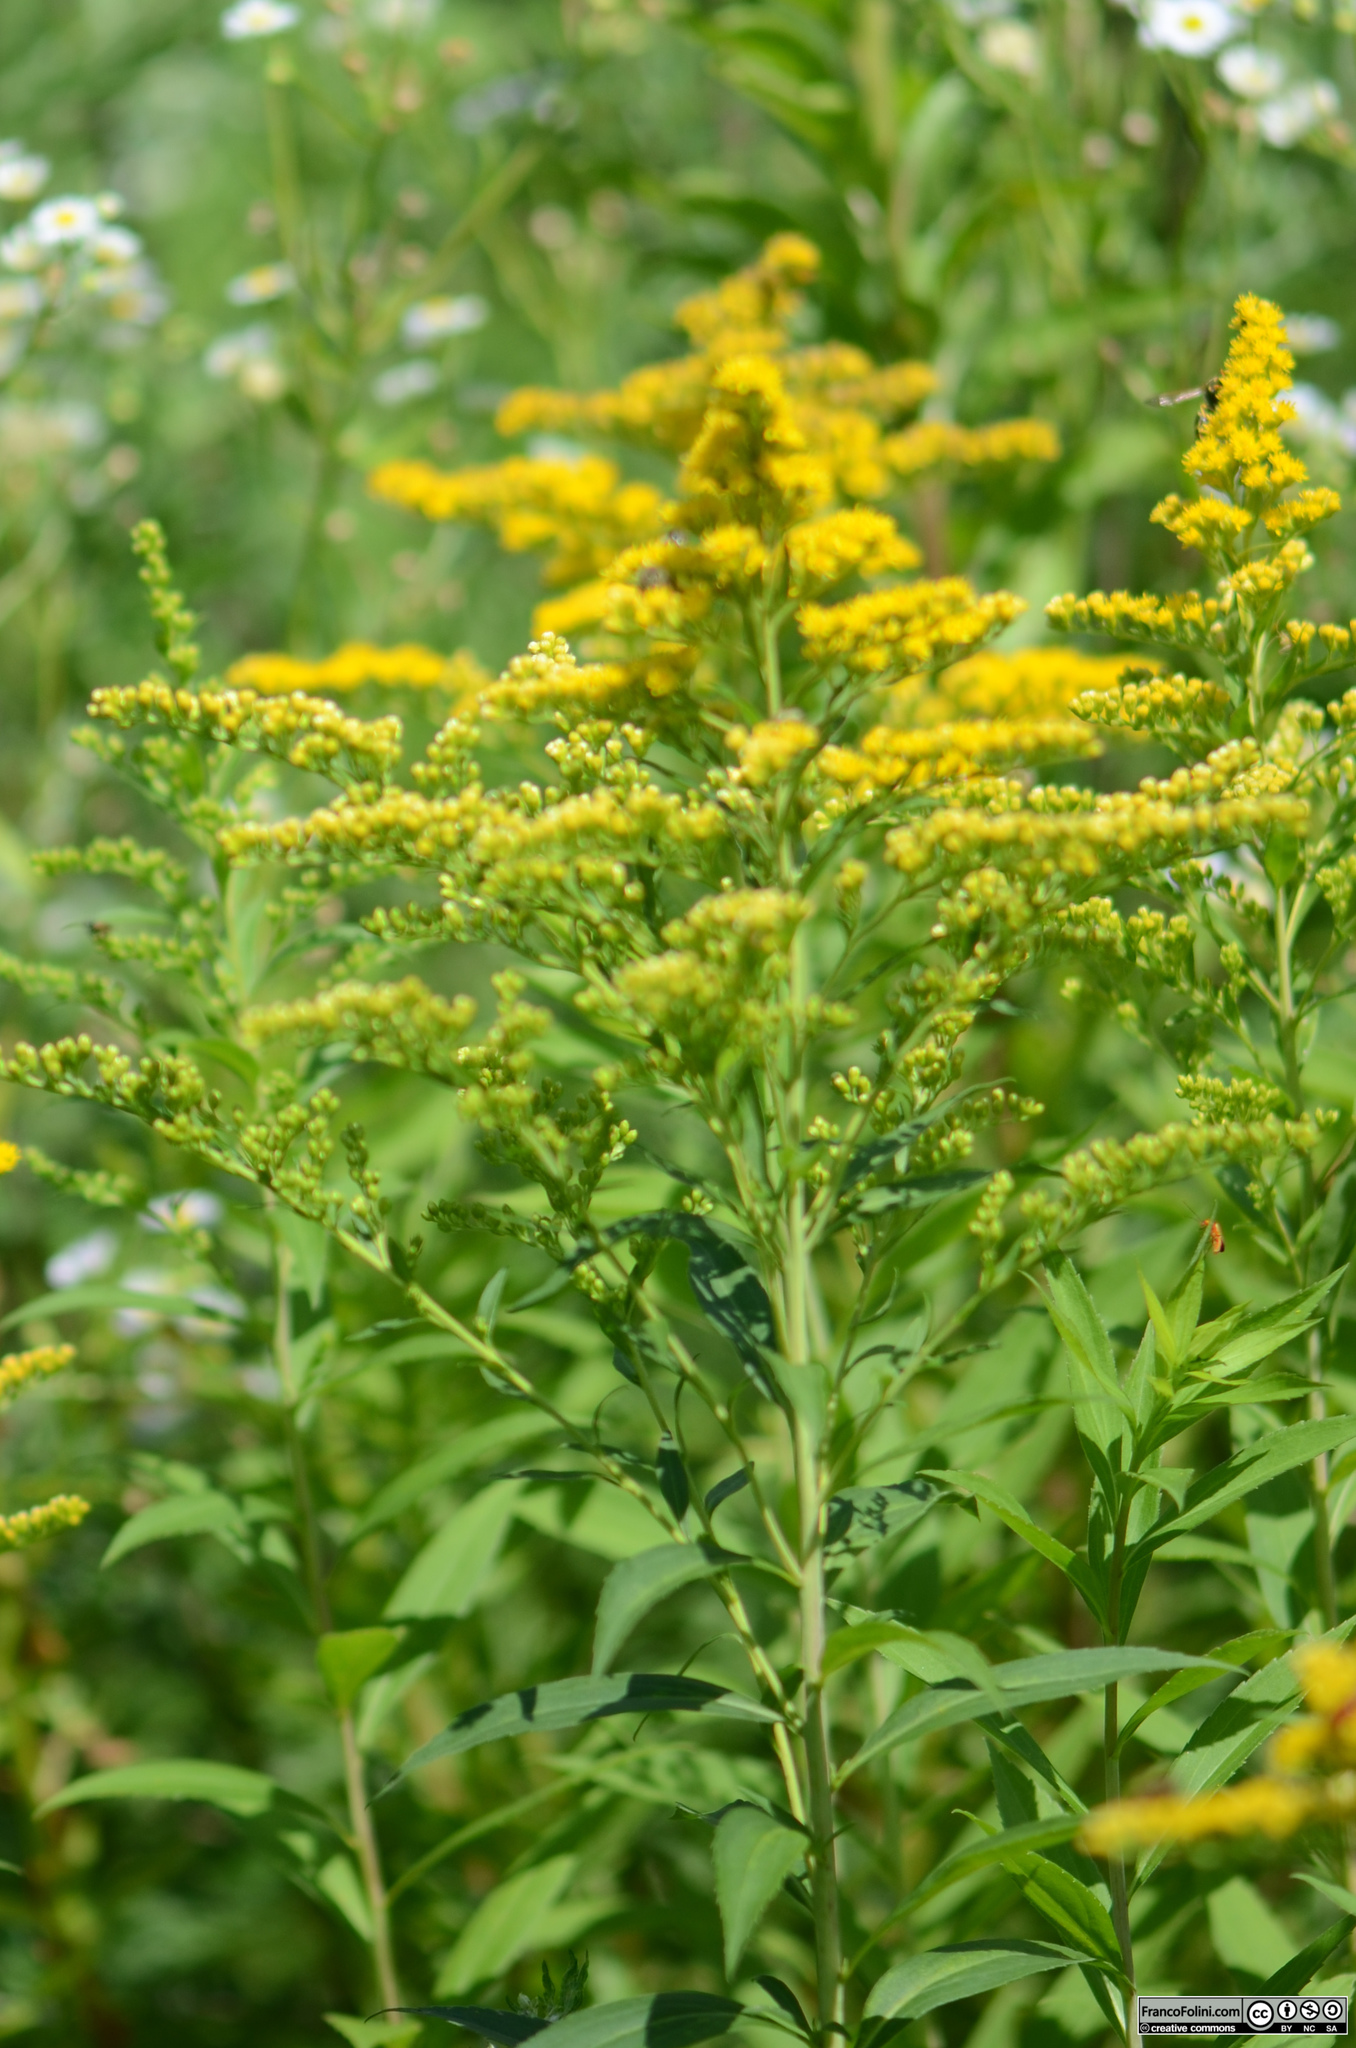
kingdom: Plantae
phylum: Tracheophyta
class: Magnoliopsida
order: Asterales
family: Asteraceae
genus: Solidago
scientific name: Solidago gigantea
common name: Giant goldenrod
